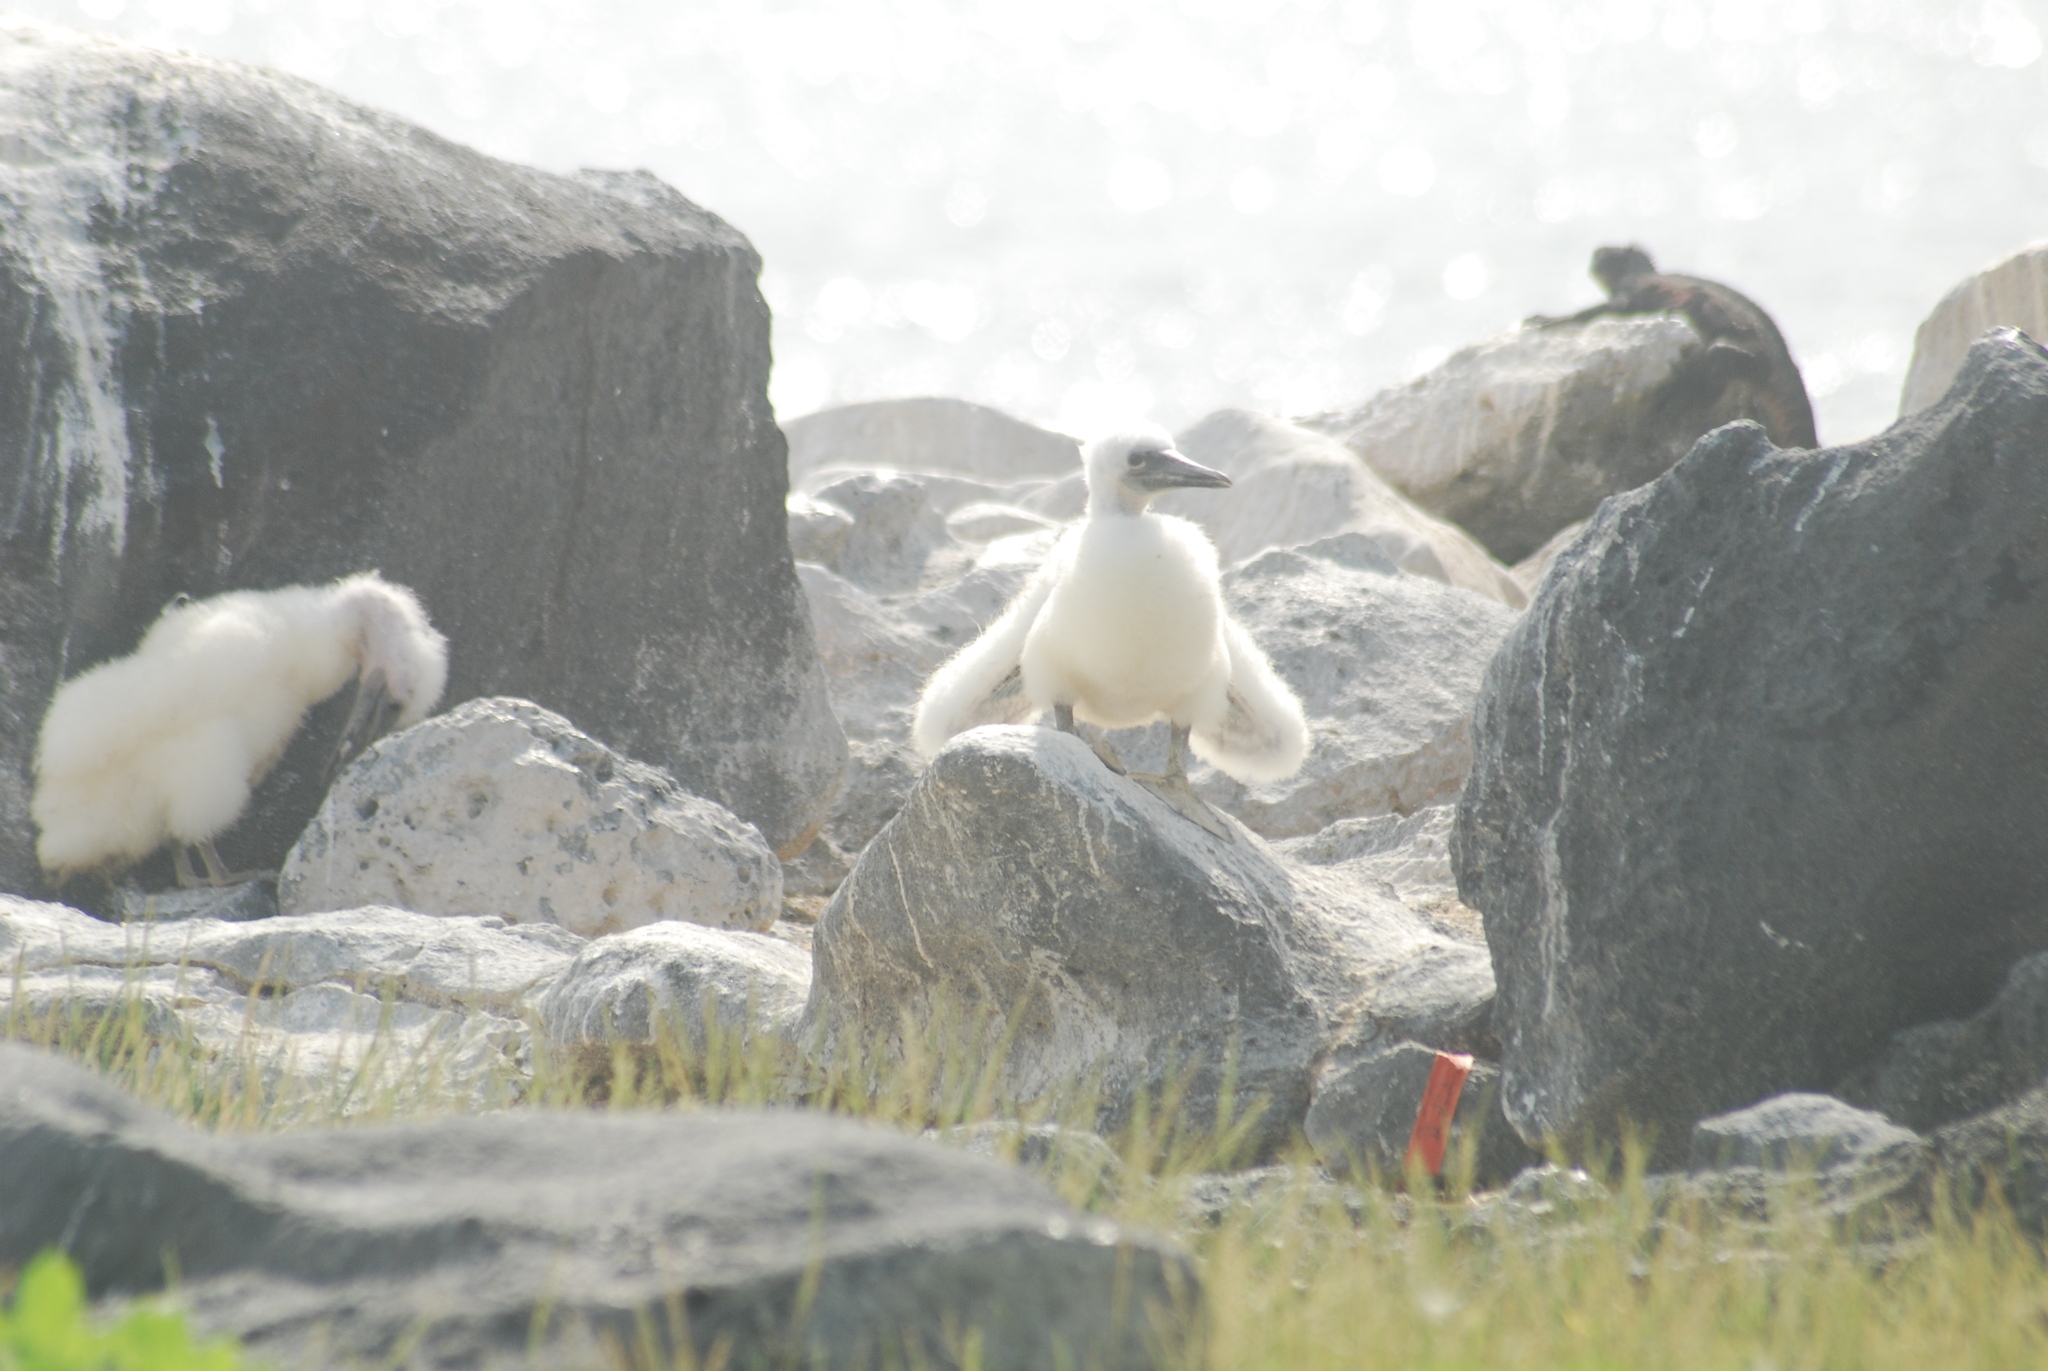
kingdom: Animalia
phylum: Chordata
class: Aves
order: Suliformes
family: Sulidae
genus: Sula
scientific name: Sula granti
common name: Nazca booby
